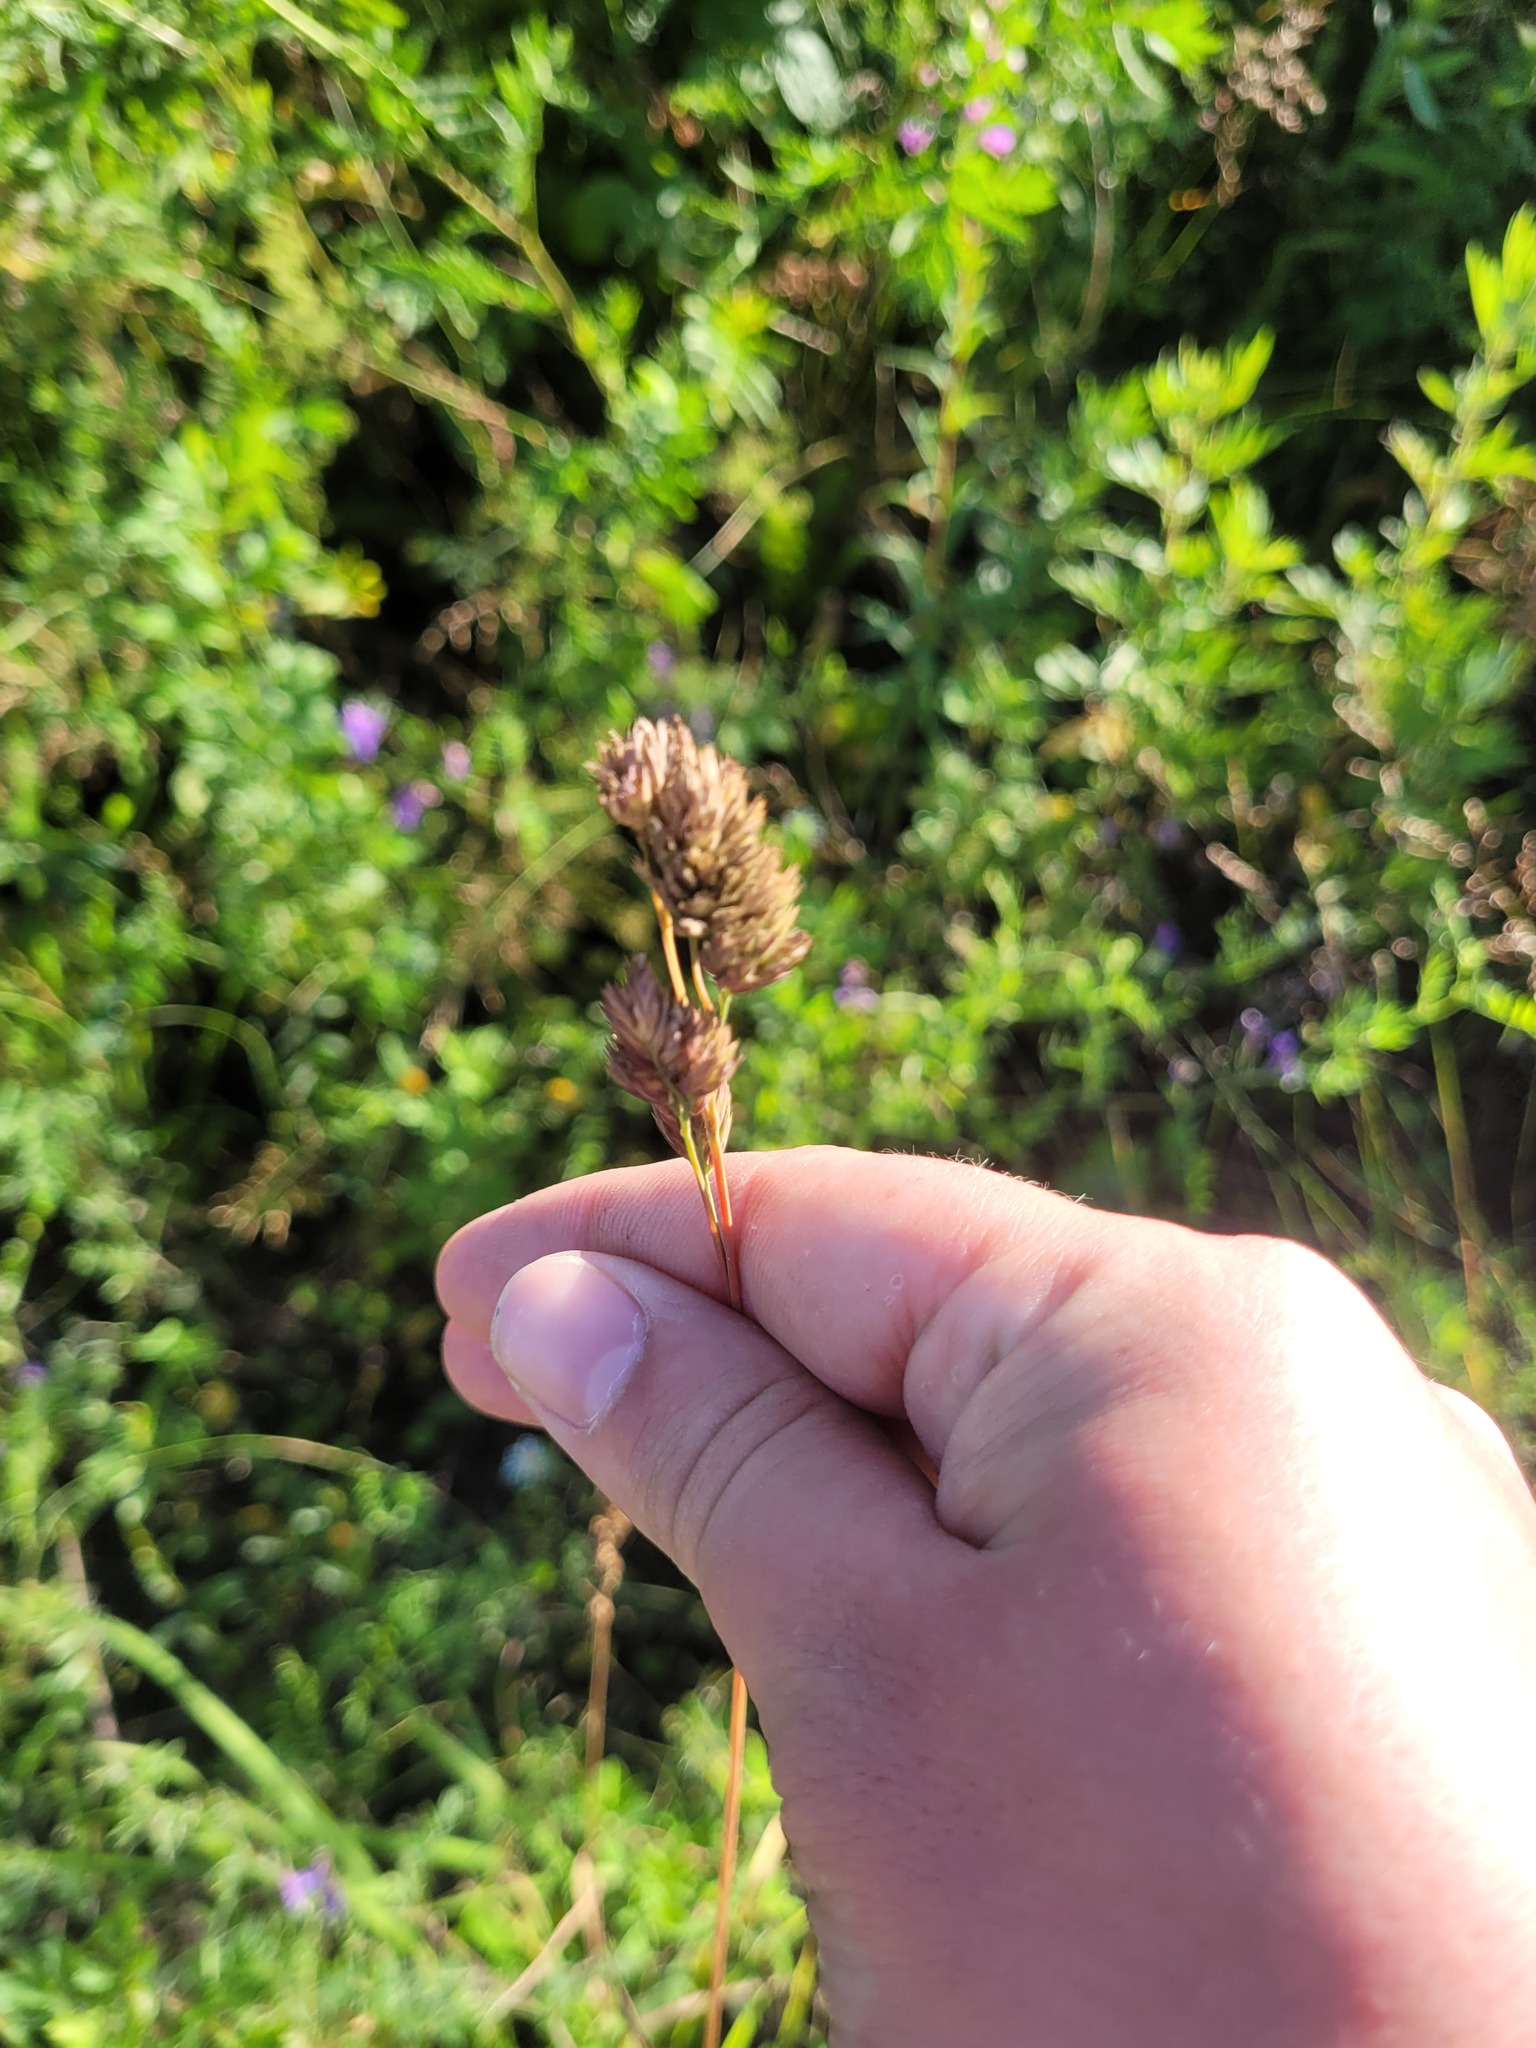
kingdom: Plantae
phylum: Tracheophyta
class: Liliopsida
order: Poales
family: Poaceae
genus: Dactylis
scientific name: Dactylis glomerata
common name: Orchardgrass
